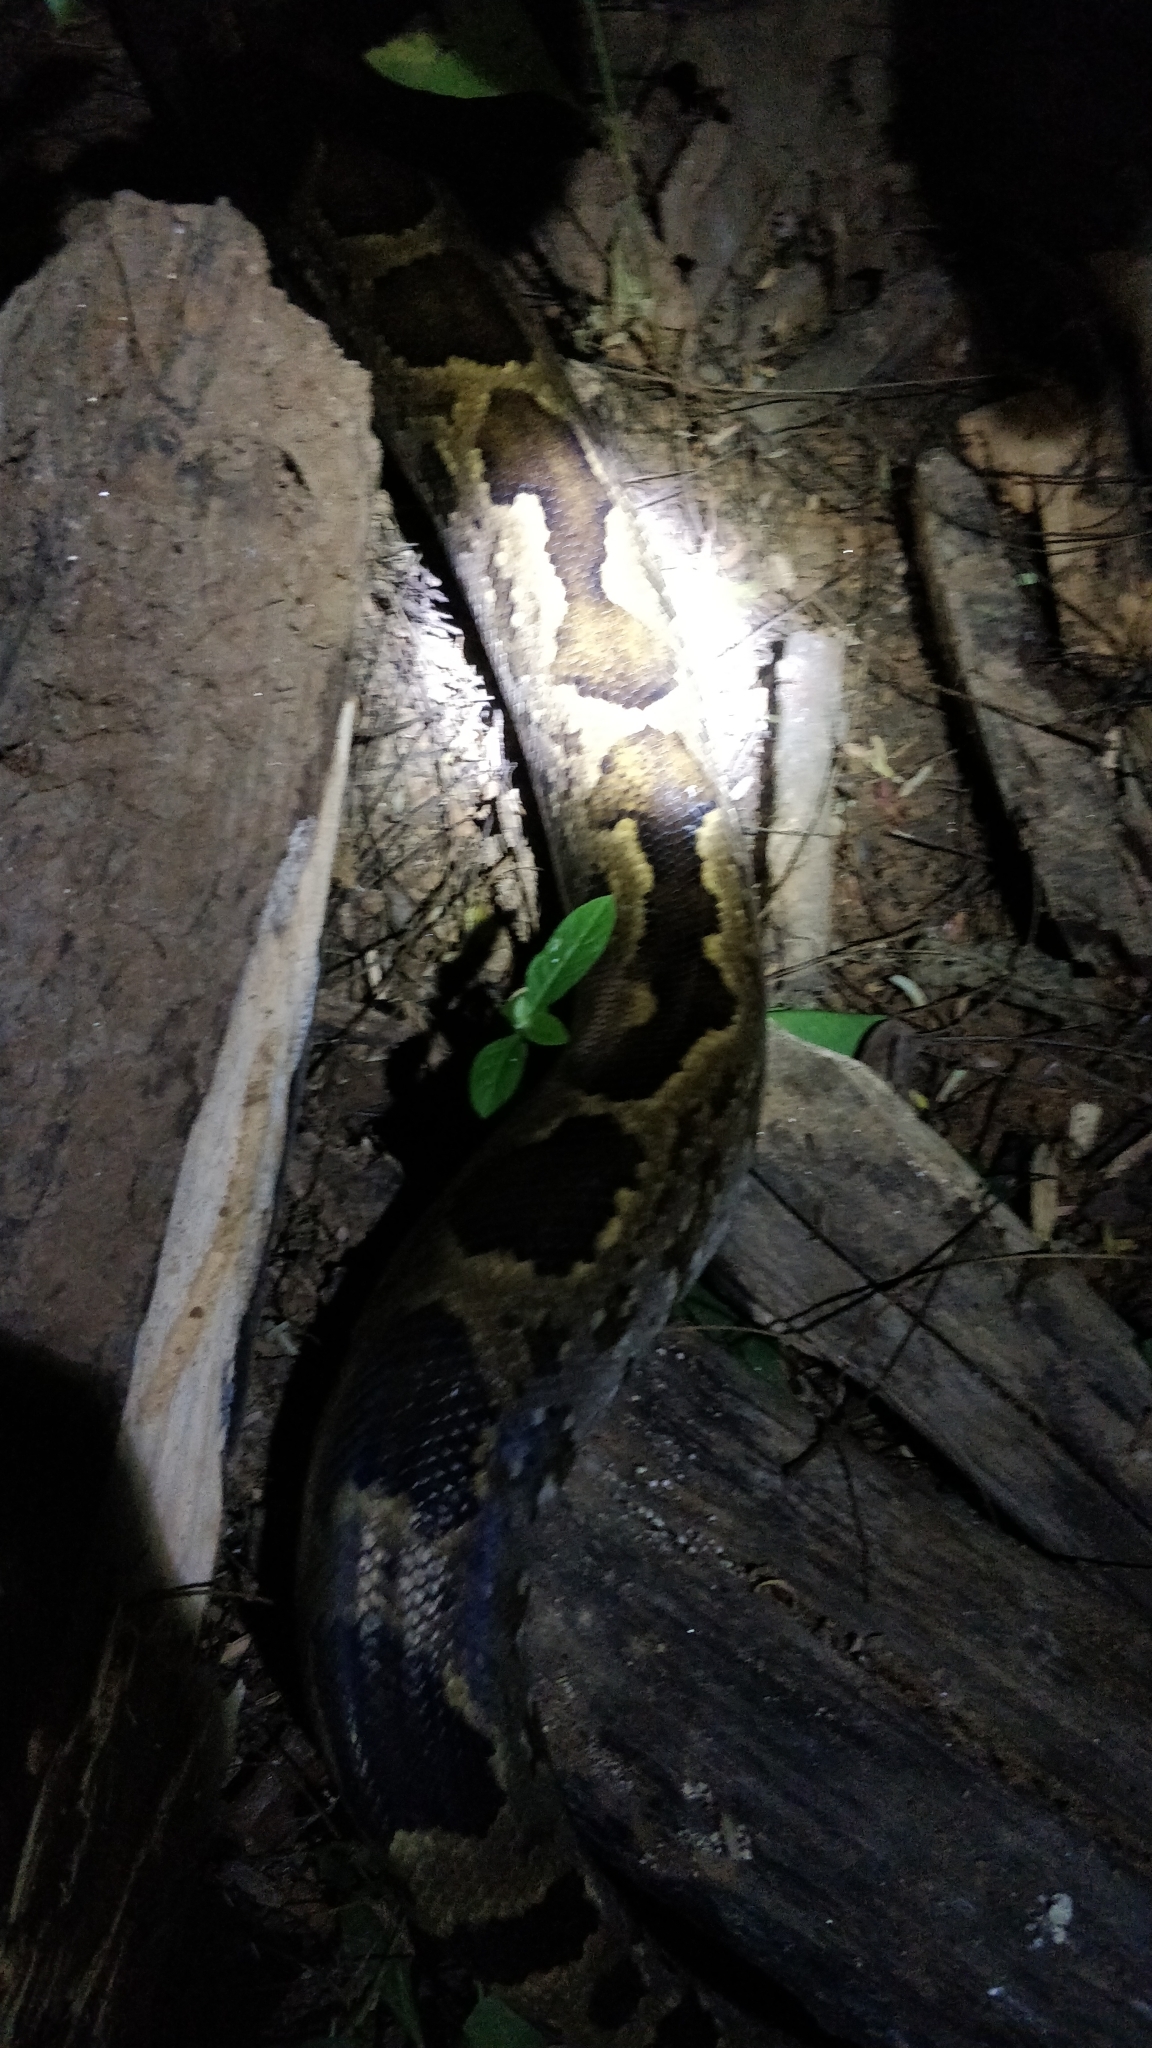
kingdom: Animalia
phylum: Chordata
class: Squamata
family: Pythonidae
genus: Python
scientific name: Python molurus
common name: Indian rock python
